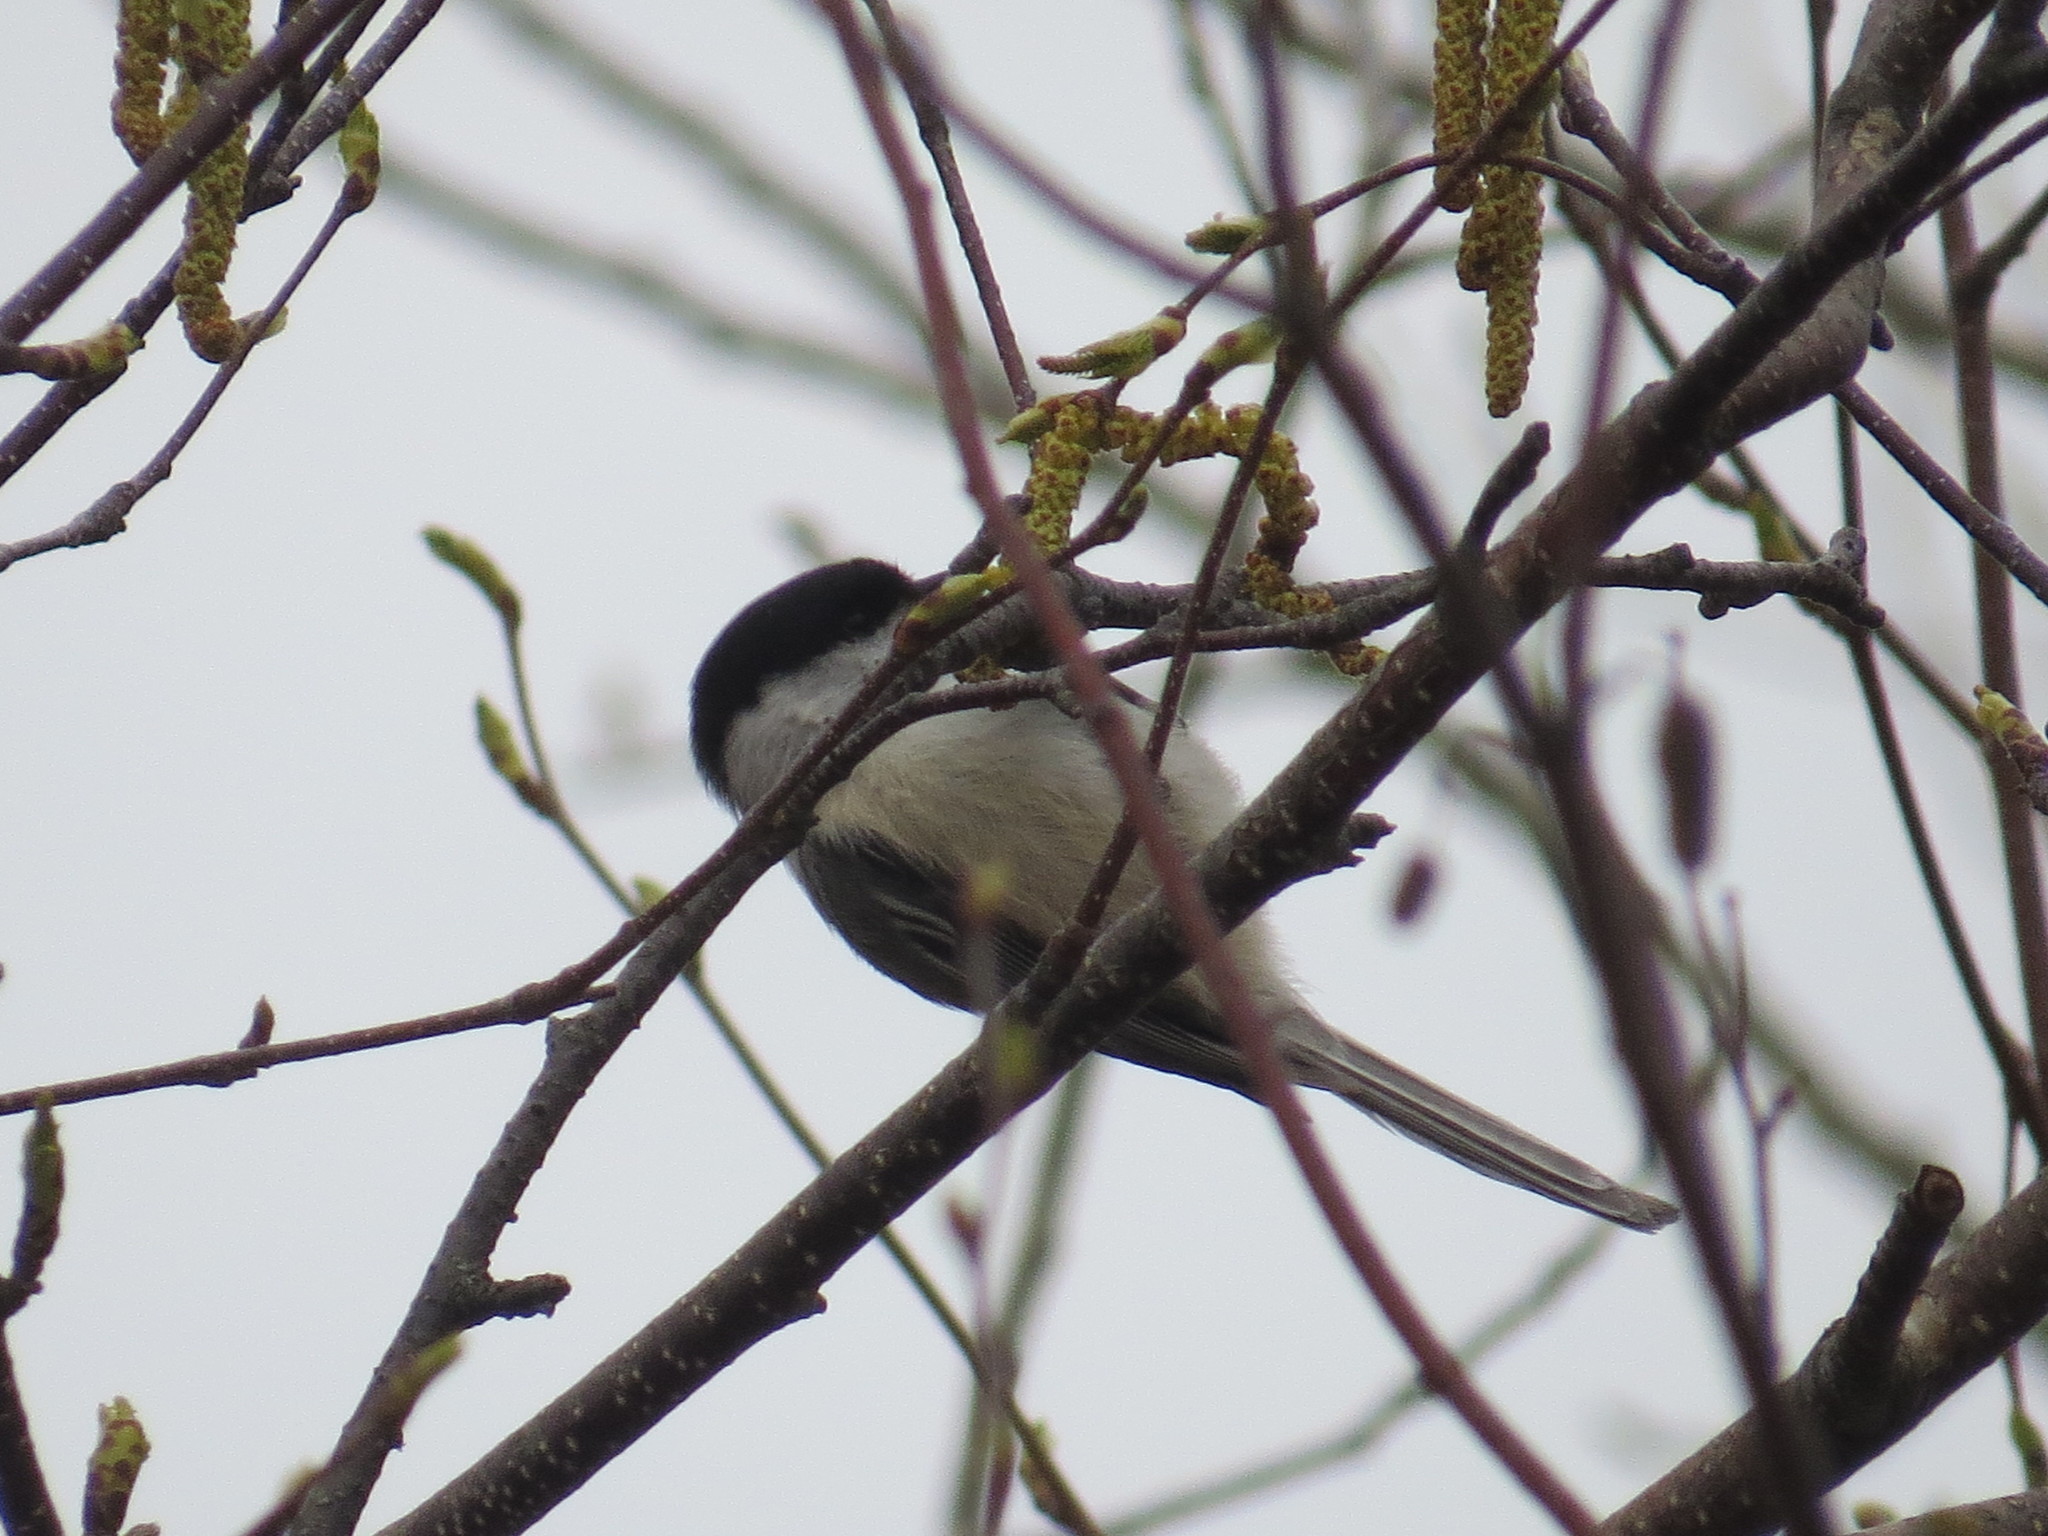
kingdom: Animalia
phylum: Chordata
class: Aves
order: Passeriformes
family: Paridae
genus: Poecile
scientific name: Poecile atricapillus
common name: Black-capped chickadee
